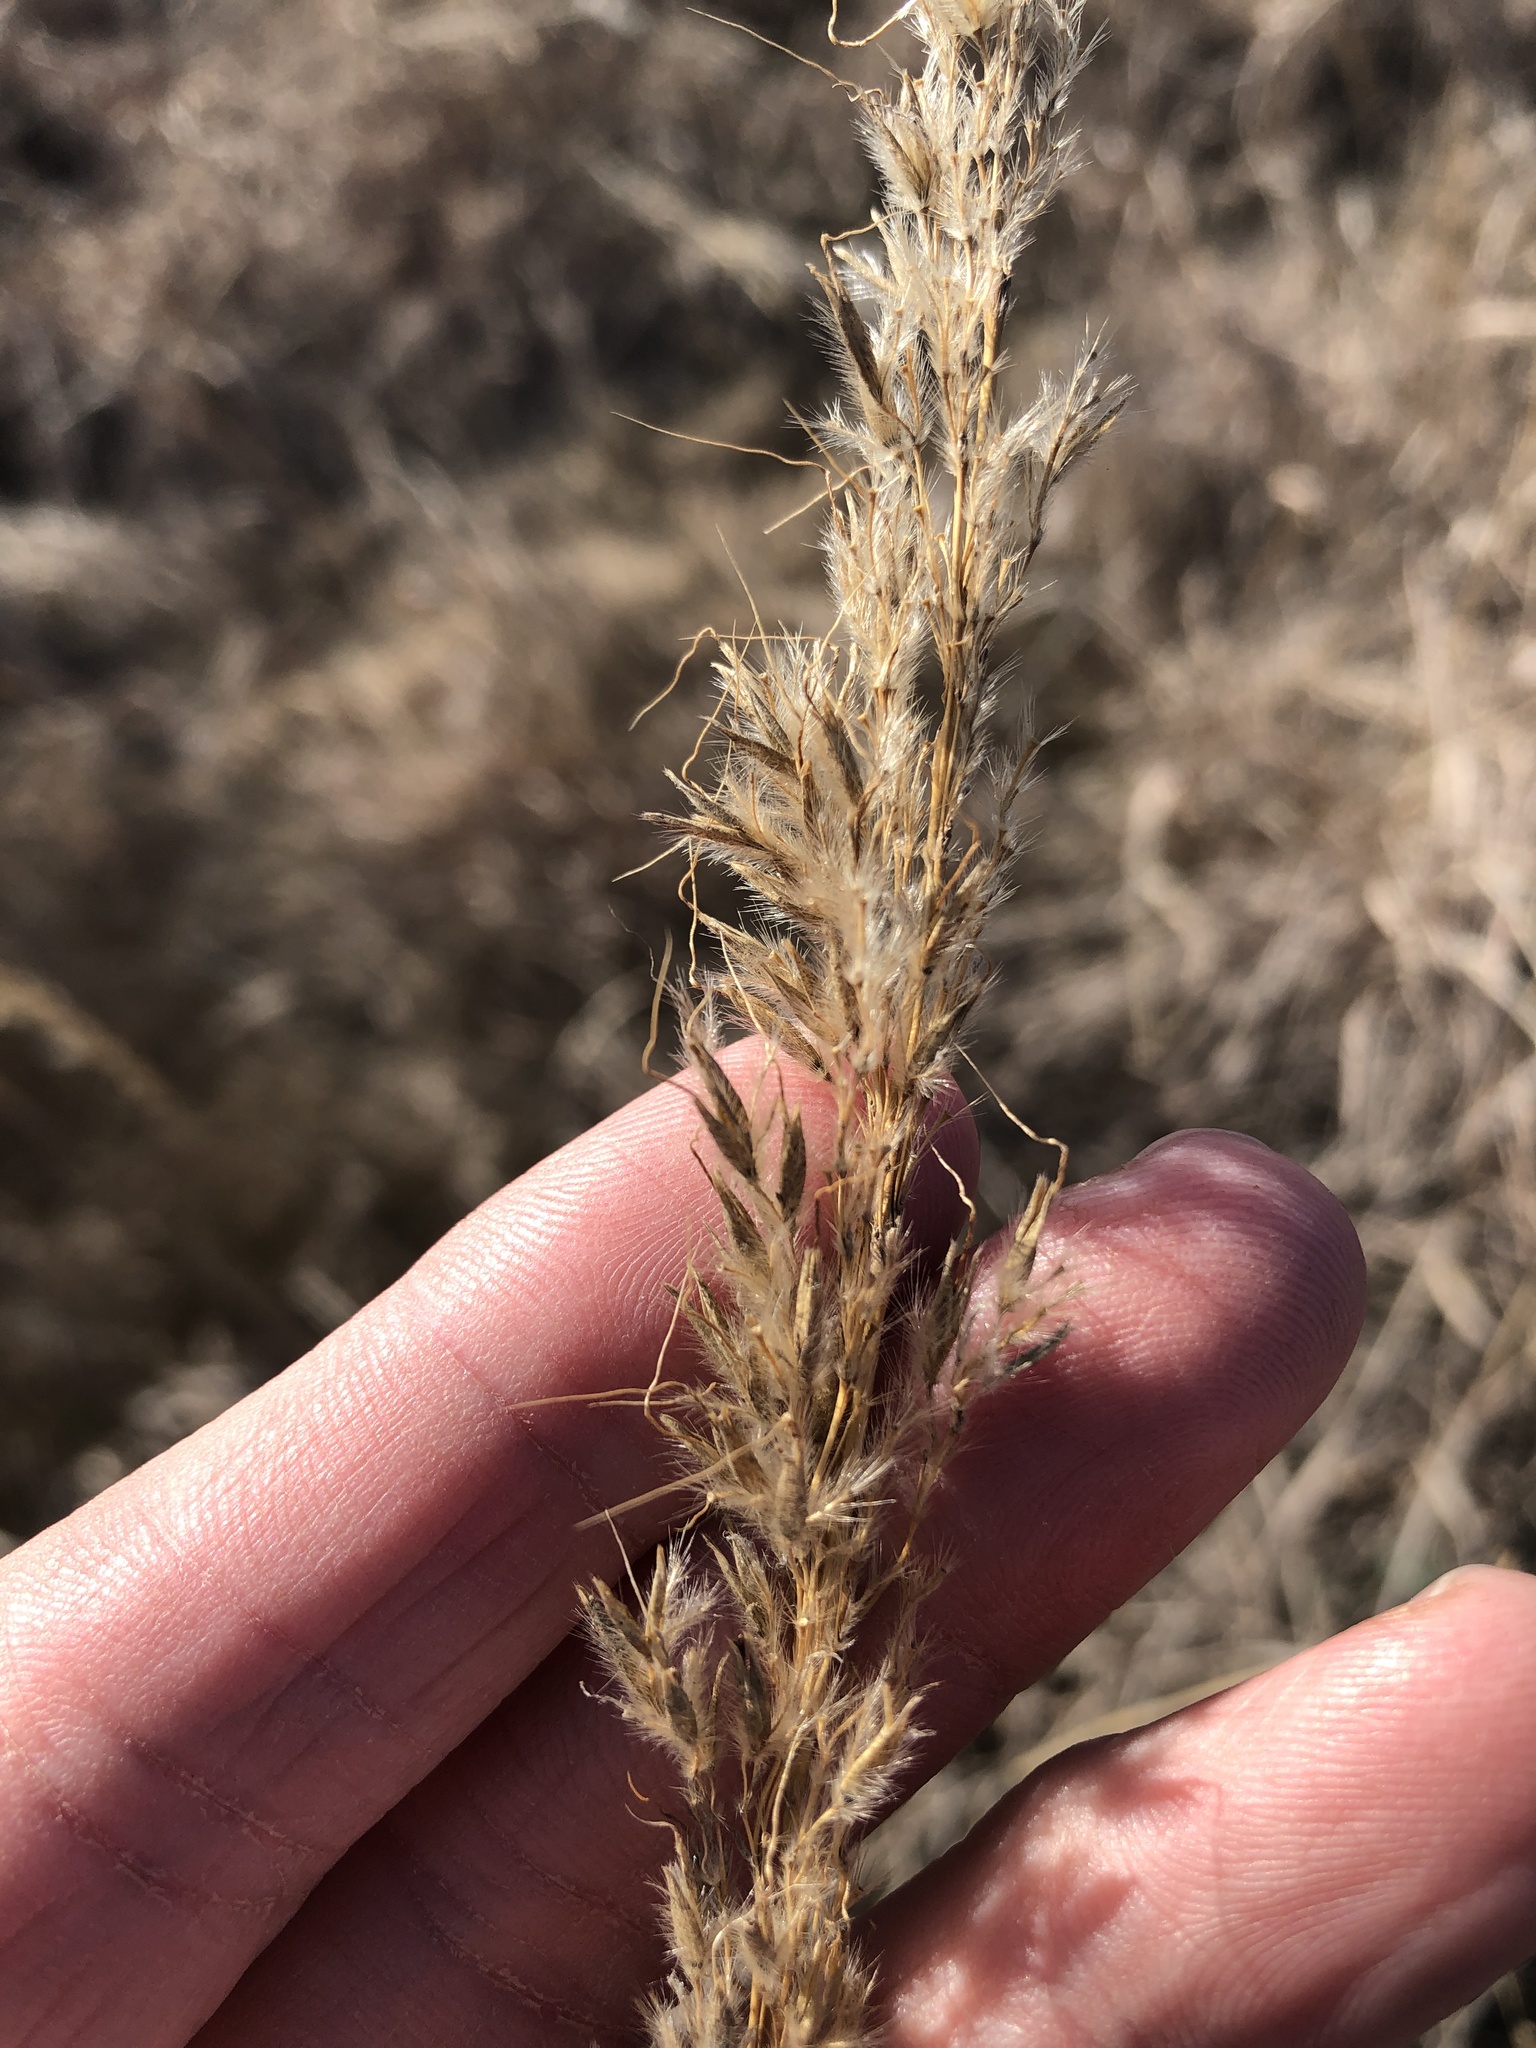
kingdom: Plantae
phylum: Tracheophyta
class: Liliopsida
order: Poales
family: Poaceae
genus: Sorghastrum
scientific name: Sorghastrum nutans
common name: Indian grass
